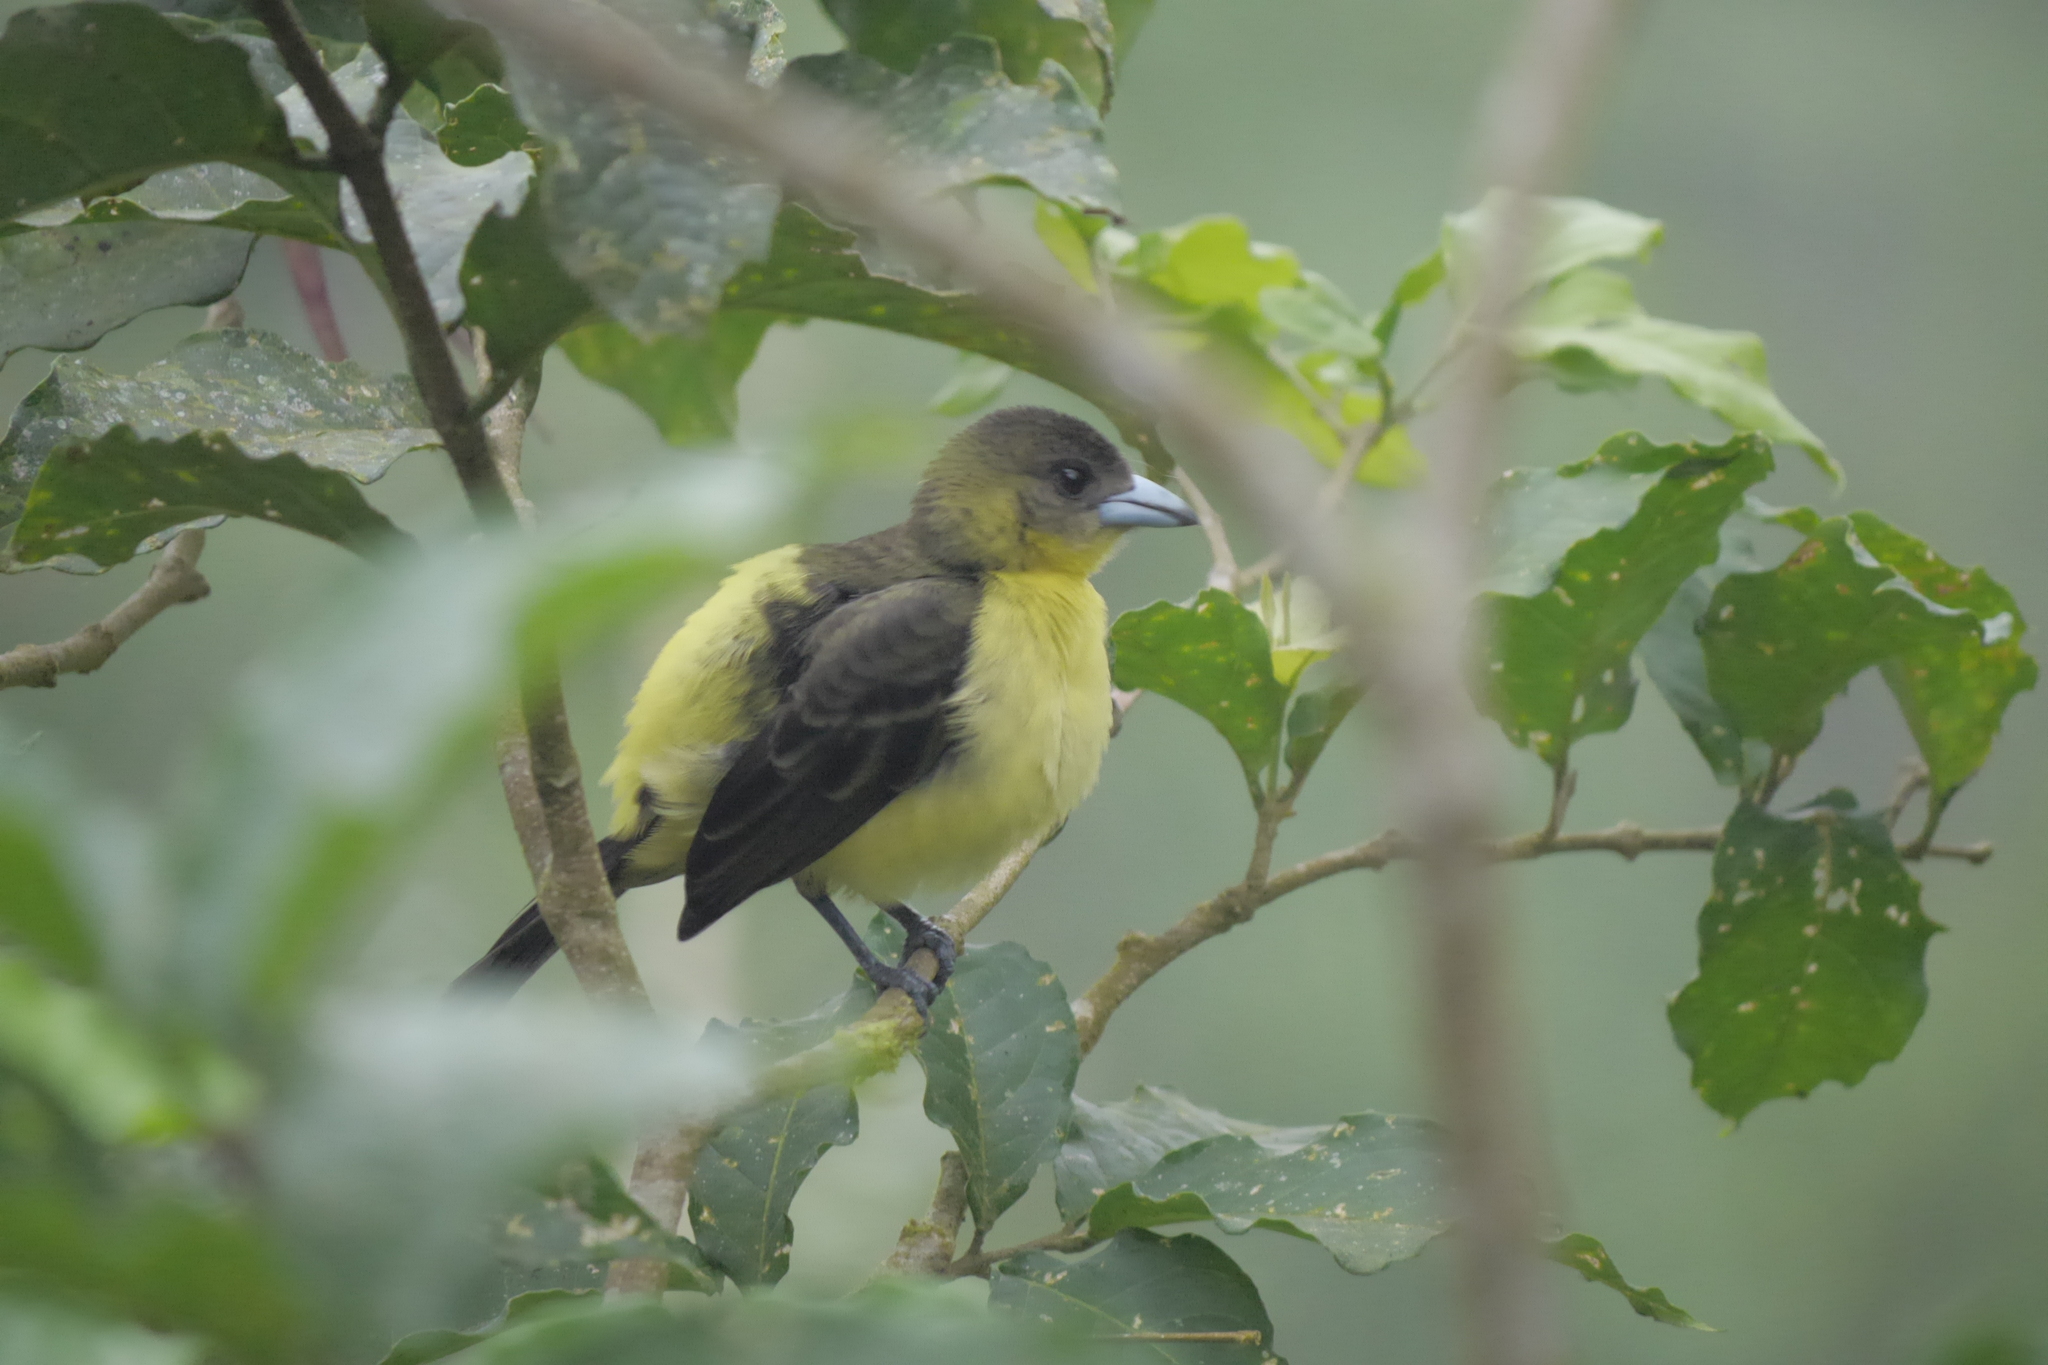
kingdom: Animalia
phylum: Chordata
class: Aves
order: Passeriformes
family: Thraupidae
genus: Ramphocelus
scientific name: Ramphocelus flammigerus
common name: Flame-rumped tanager
